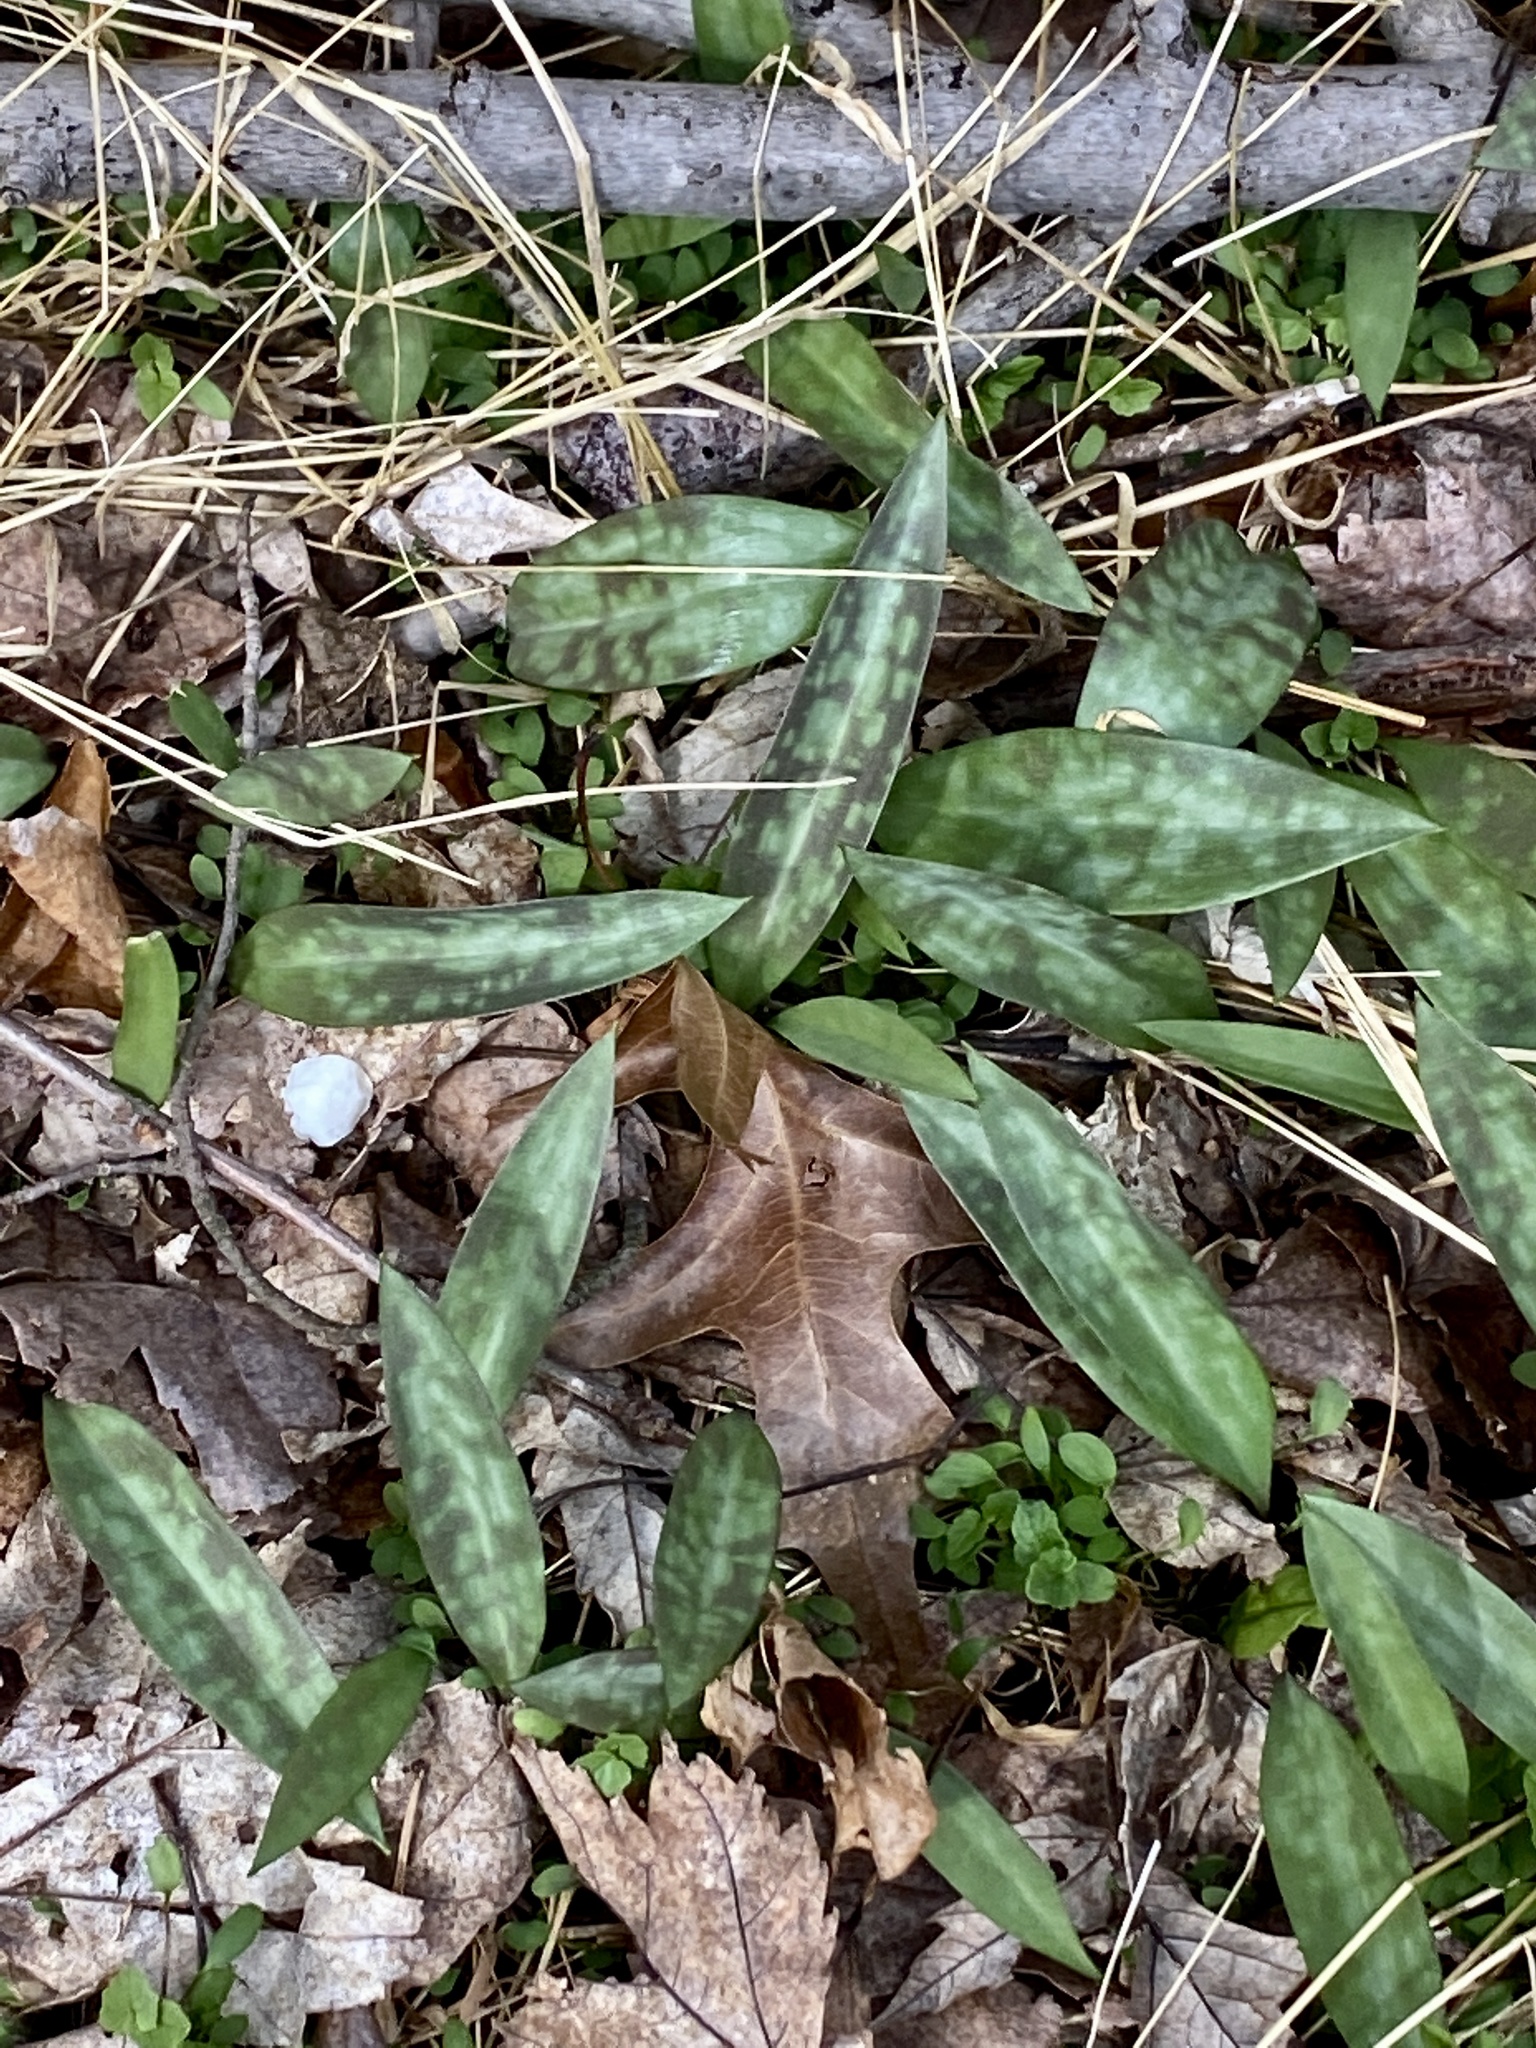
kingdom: Plantae
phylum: Tracheophyta
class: Liliopsida
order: Liliales
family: Liliaceae
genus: Erythronium
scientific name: Erythronium americanum
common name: Yellow adder's-tongue
